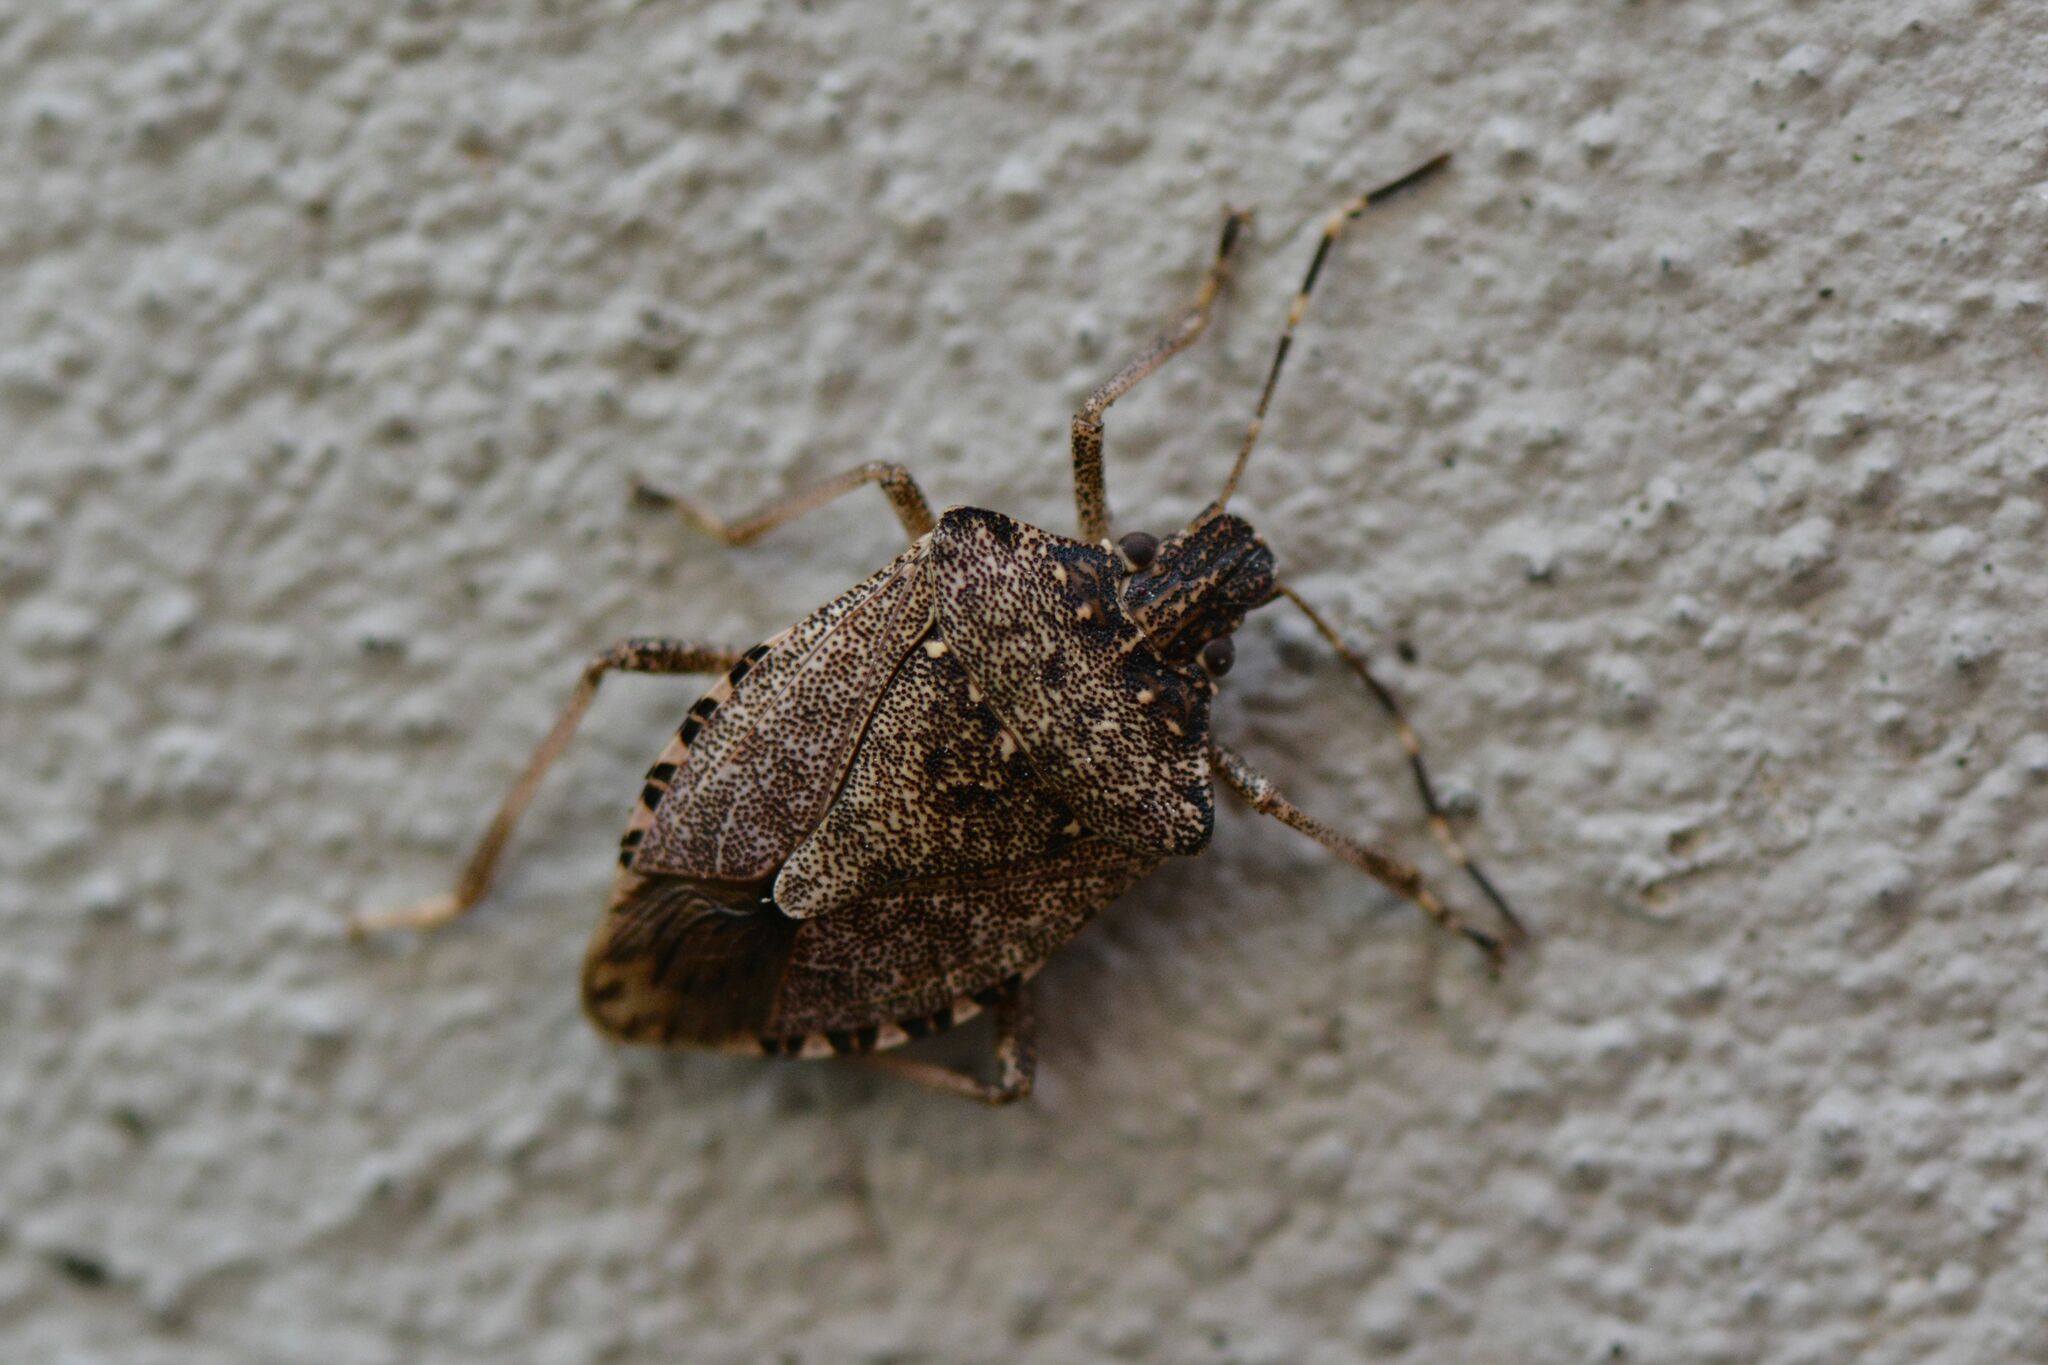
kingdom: Animalia
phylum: Arthropoda
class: Insecta
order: Hemiptera
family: Pentatomidae
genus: Halyomorpha
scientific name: Halyomorpha halys
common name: Brown marmorated stink bug
